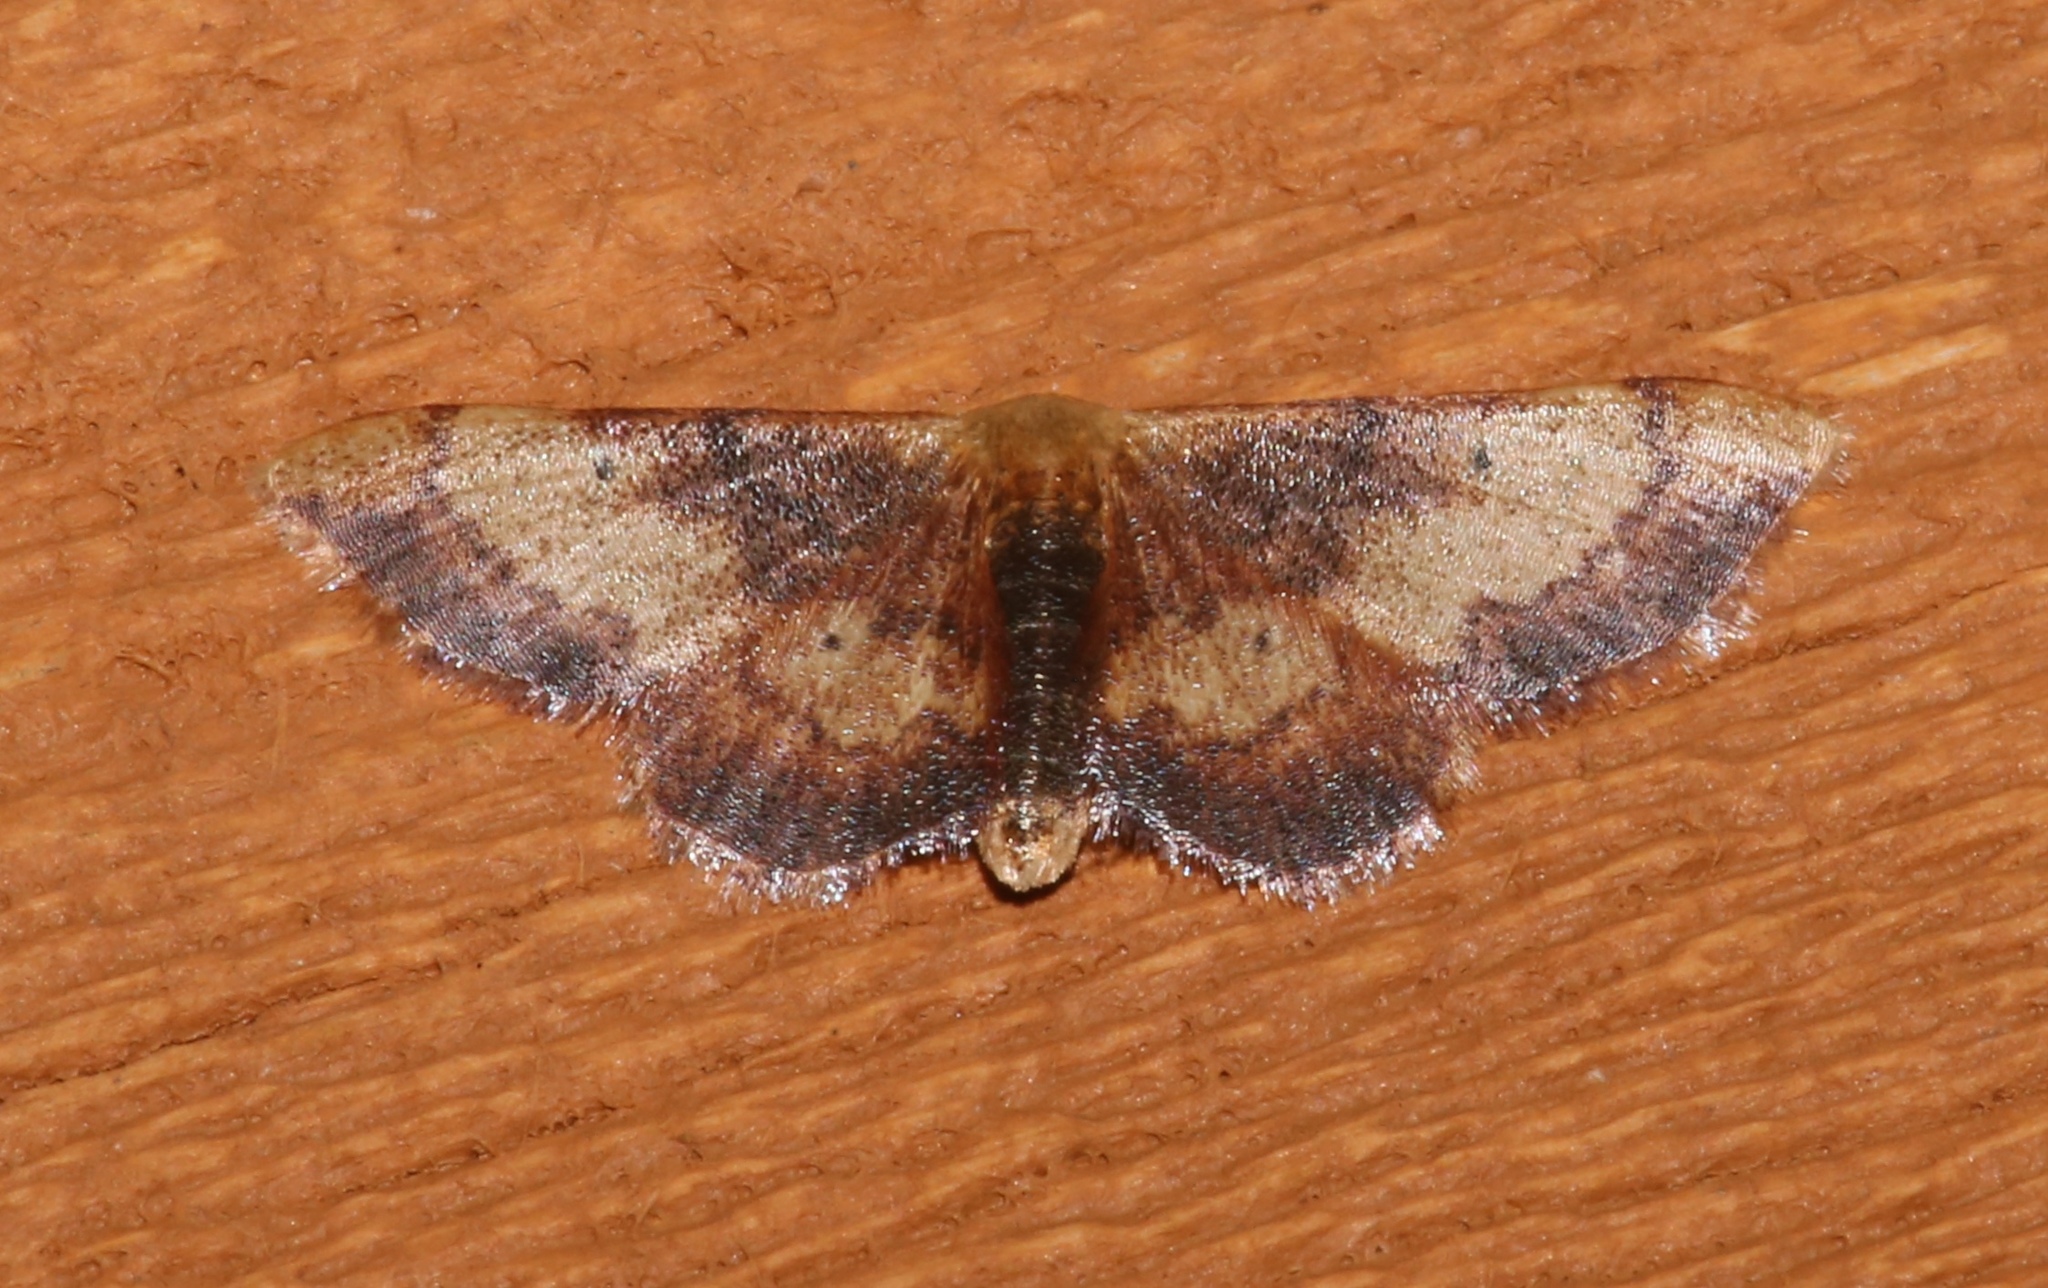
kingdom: Animalia
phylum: Arthropoda
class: Insecta
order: Lepidoptera
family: Geometridae
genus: Idaea
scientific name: Idaea demissaria
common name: Red-bordered wave
